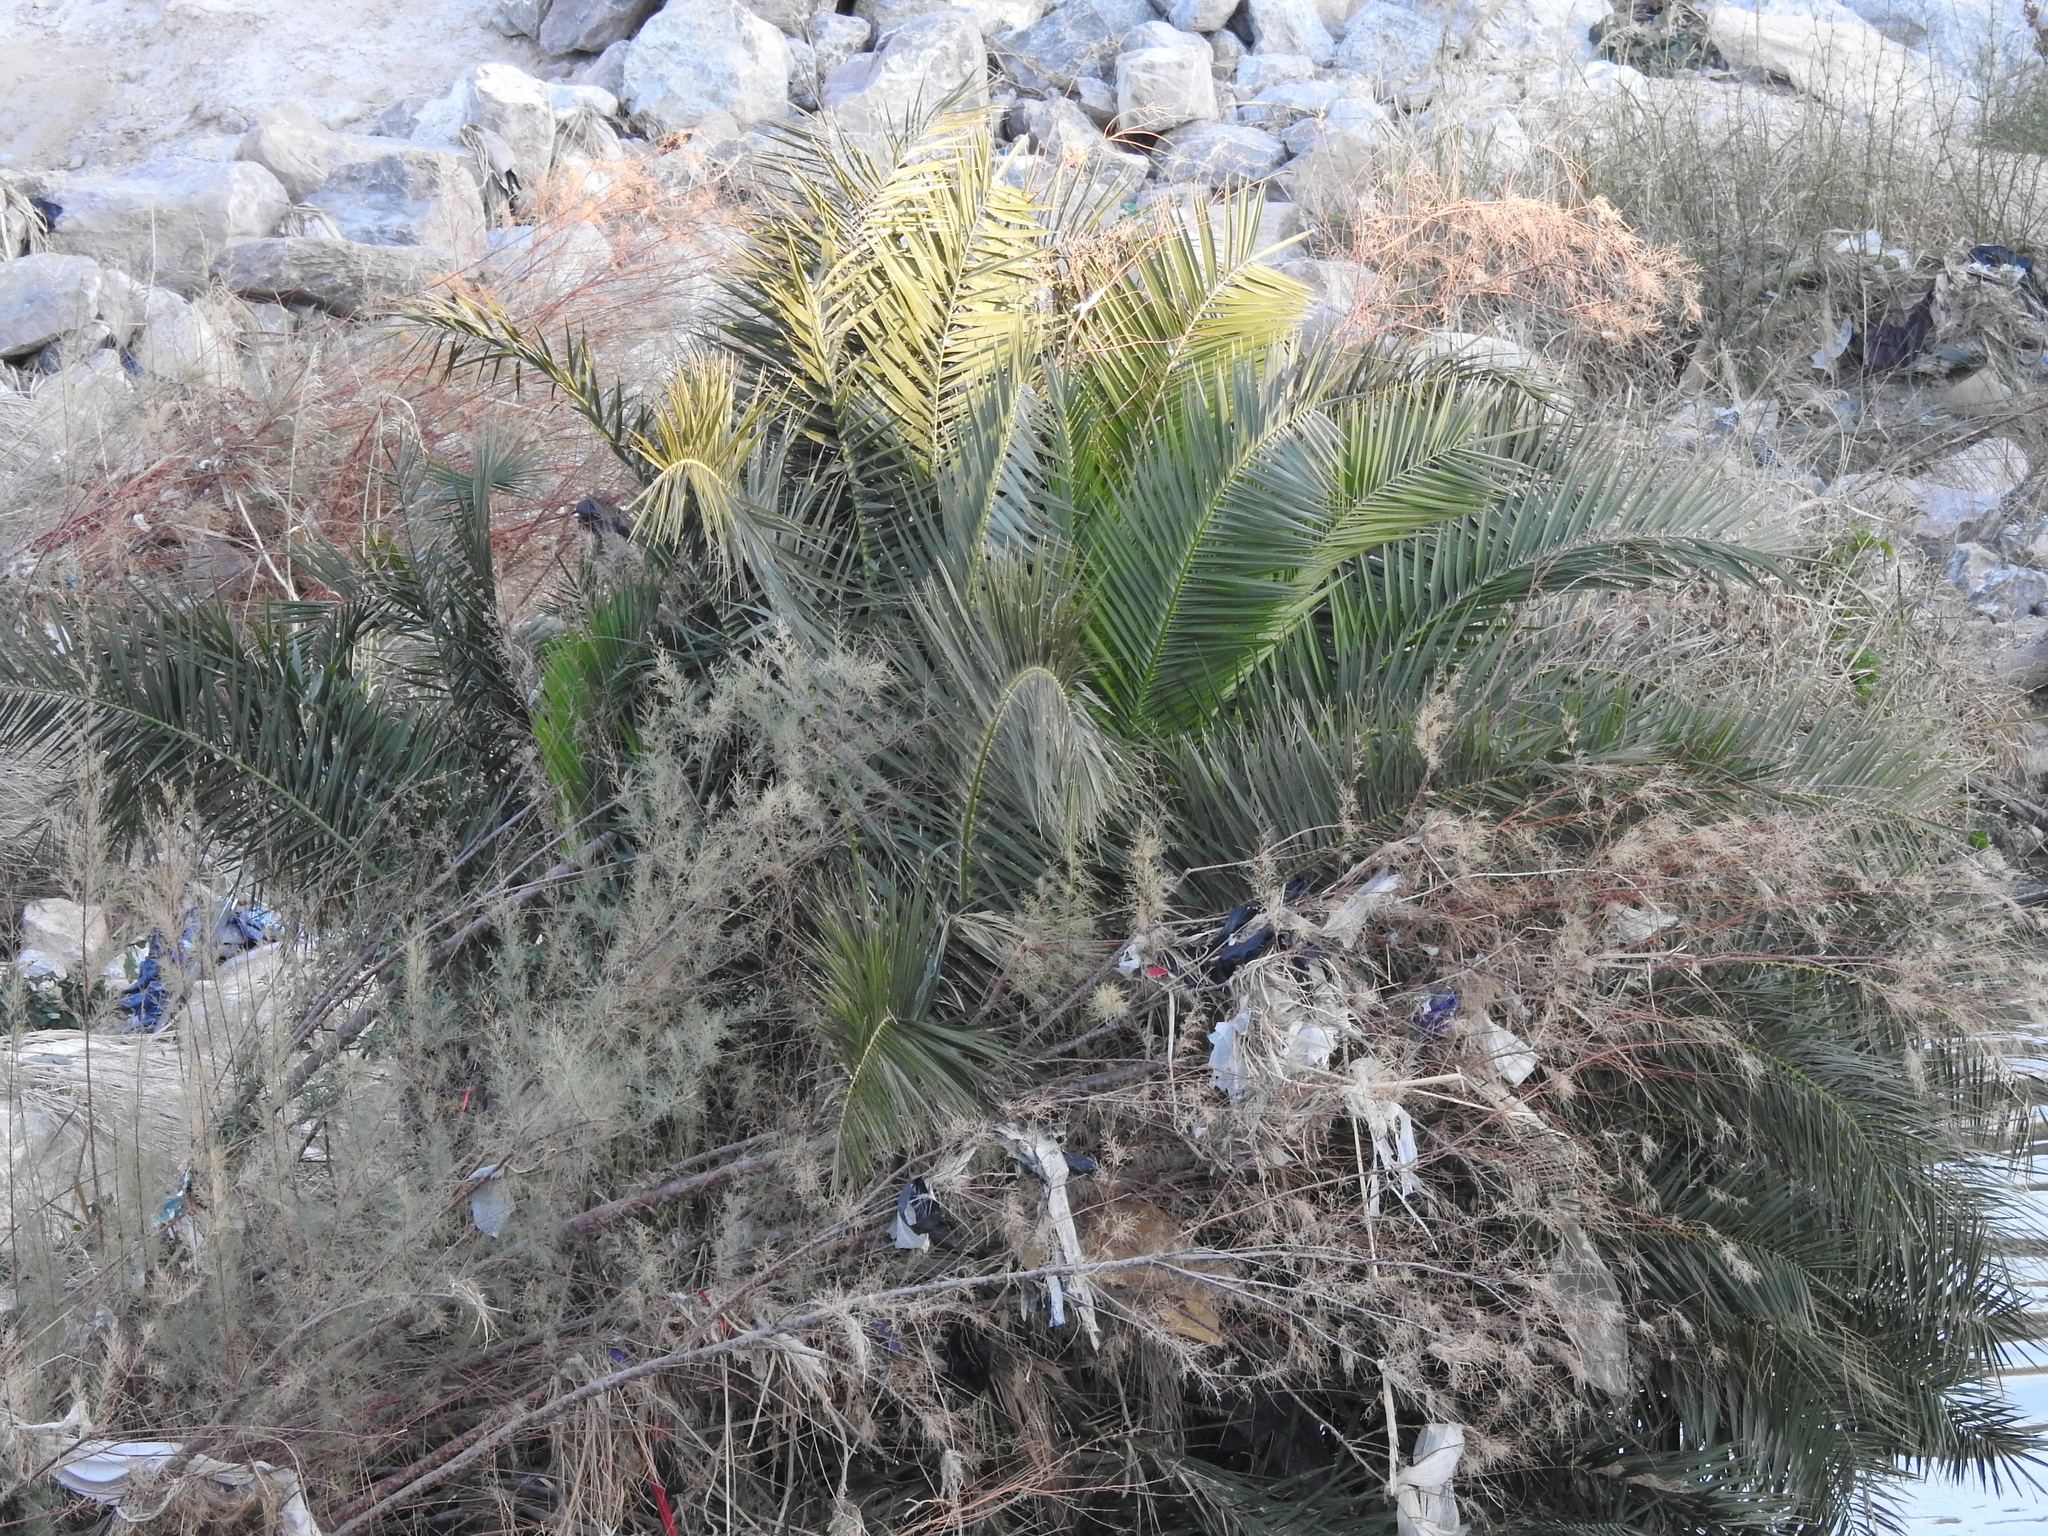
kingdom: Plantae
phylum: Tracheophyta
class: Liliopsida
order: Arecales
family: Arecaceae
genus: Phoenix
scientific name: Phoenix canariensis
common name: Canary island date palm
